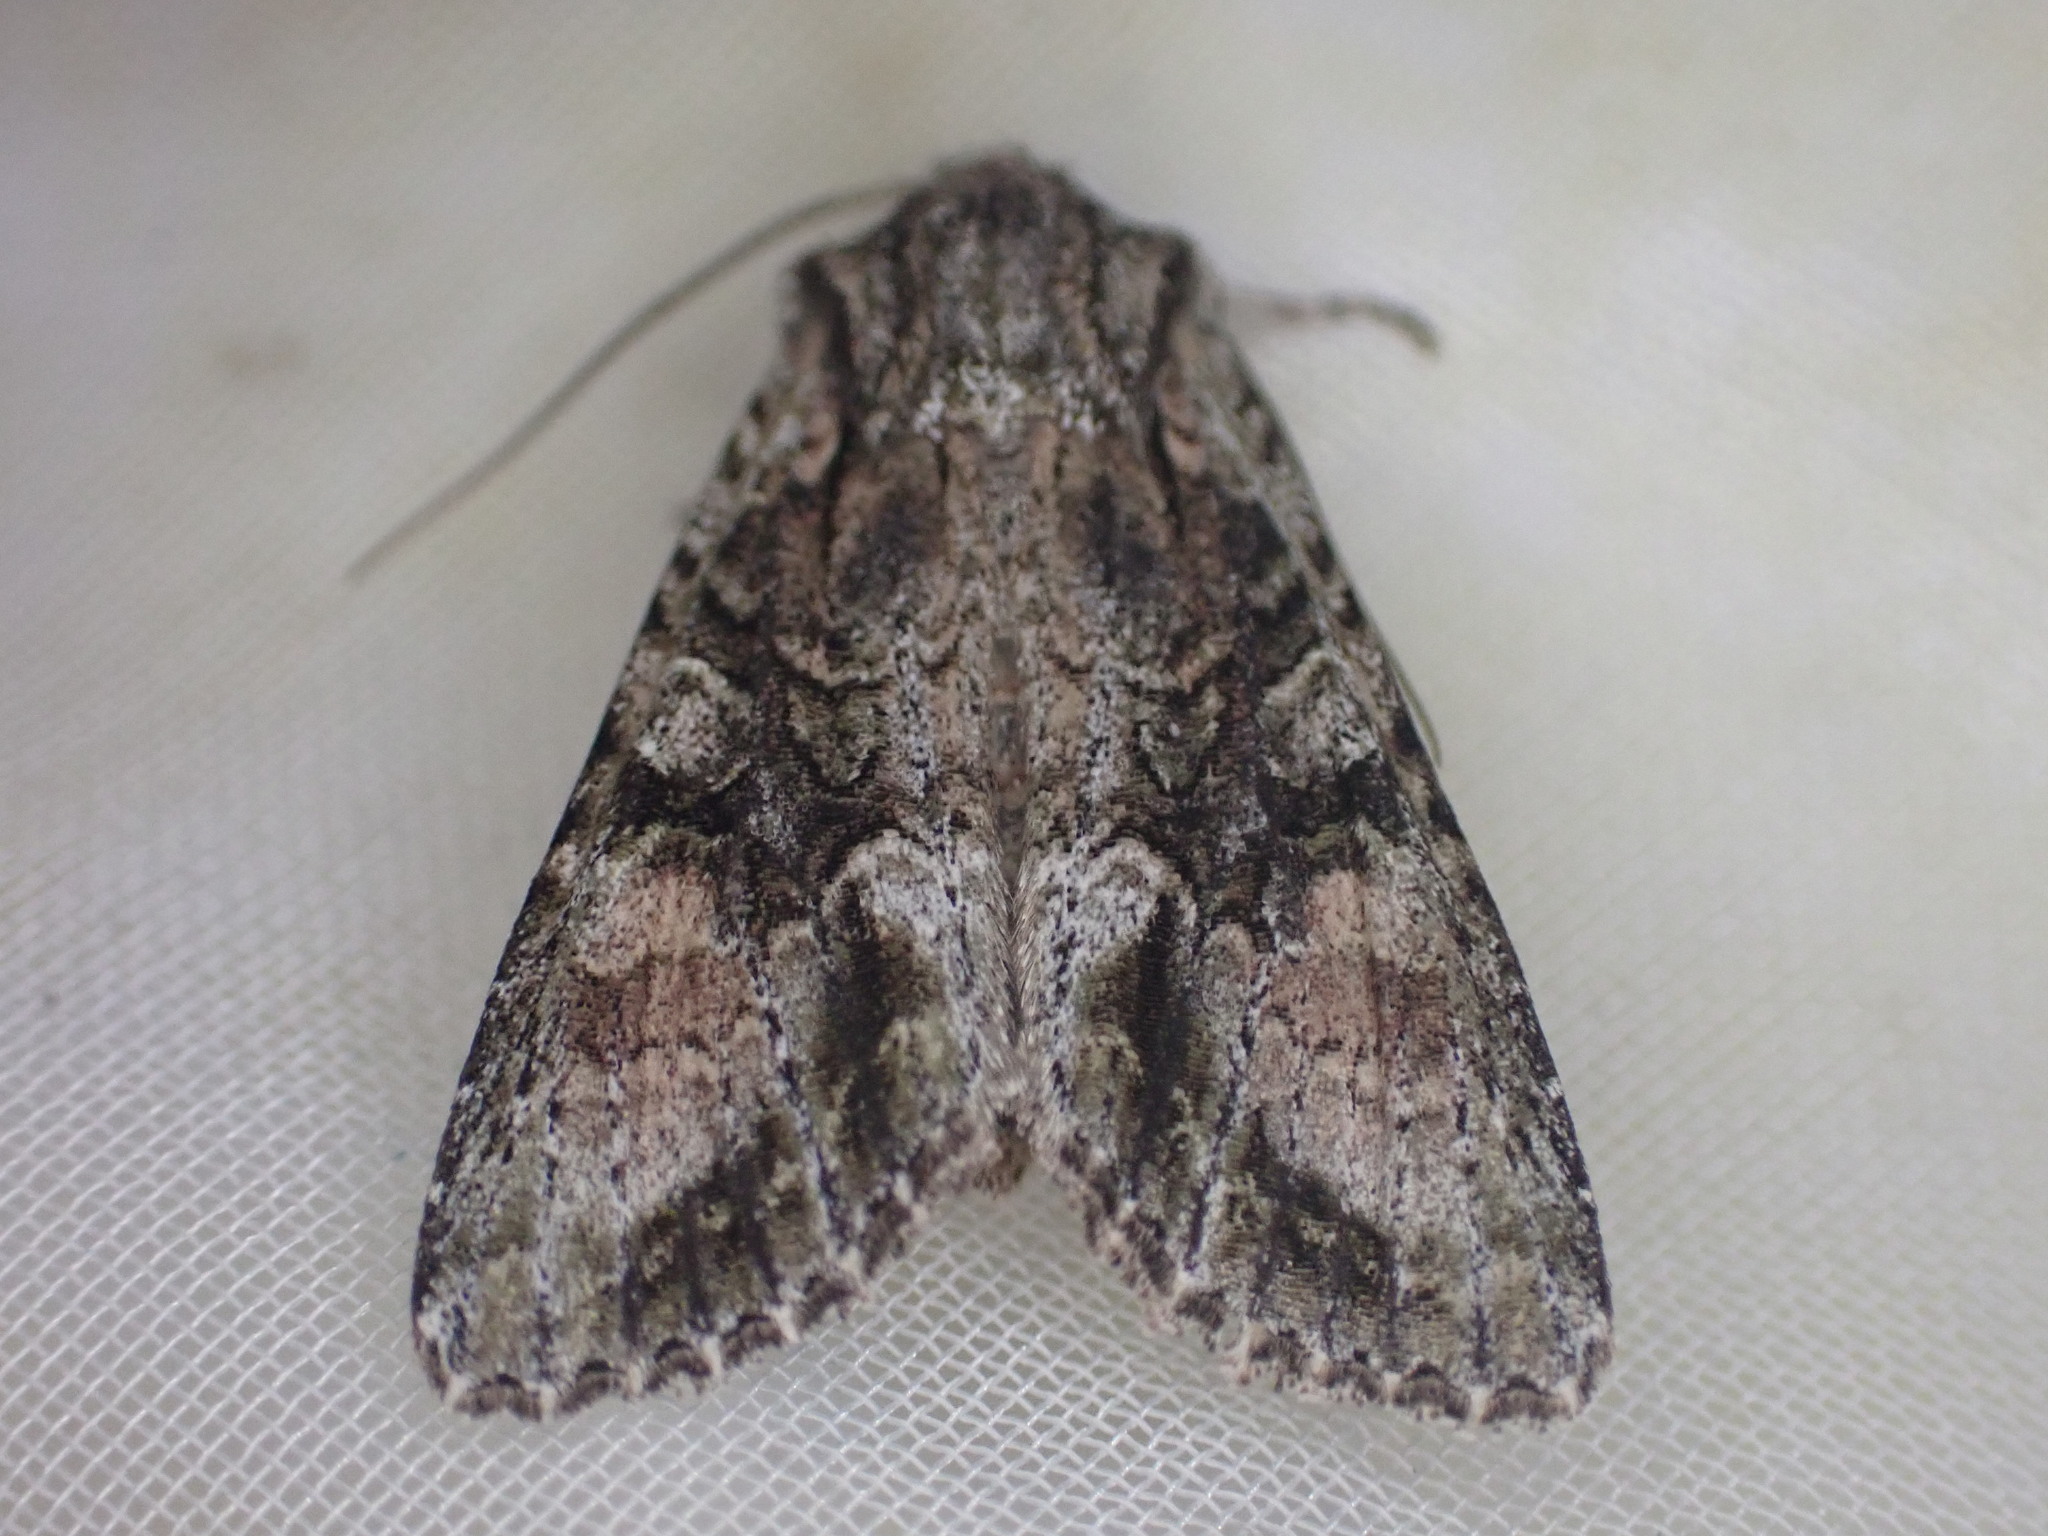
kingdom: Animalia
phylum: Arthropoda
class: Insecta
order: Lepidoptera
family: Noctuidae
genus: Ichneutica
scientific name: Ichneutica mutans
